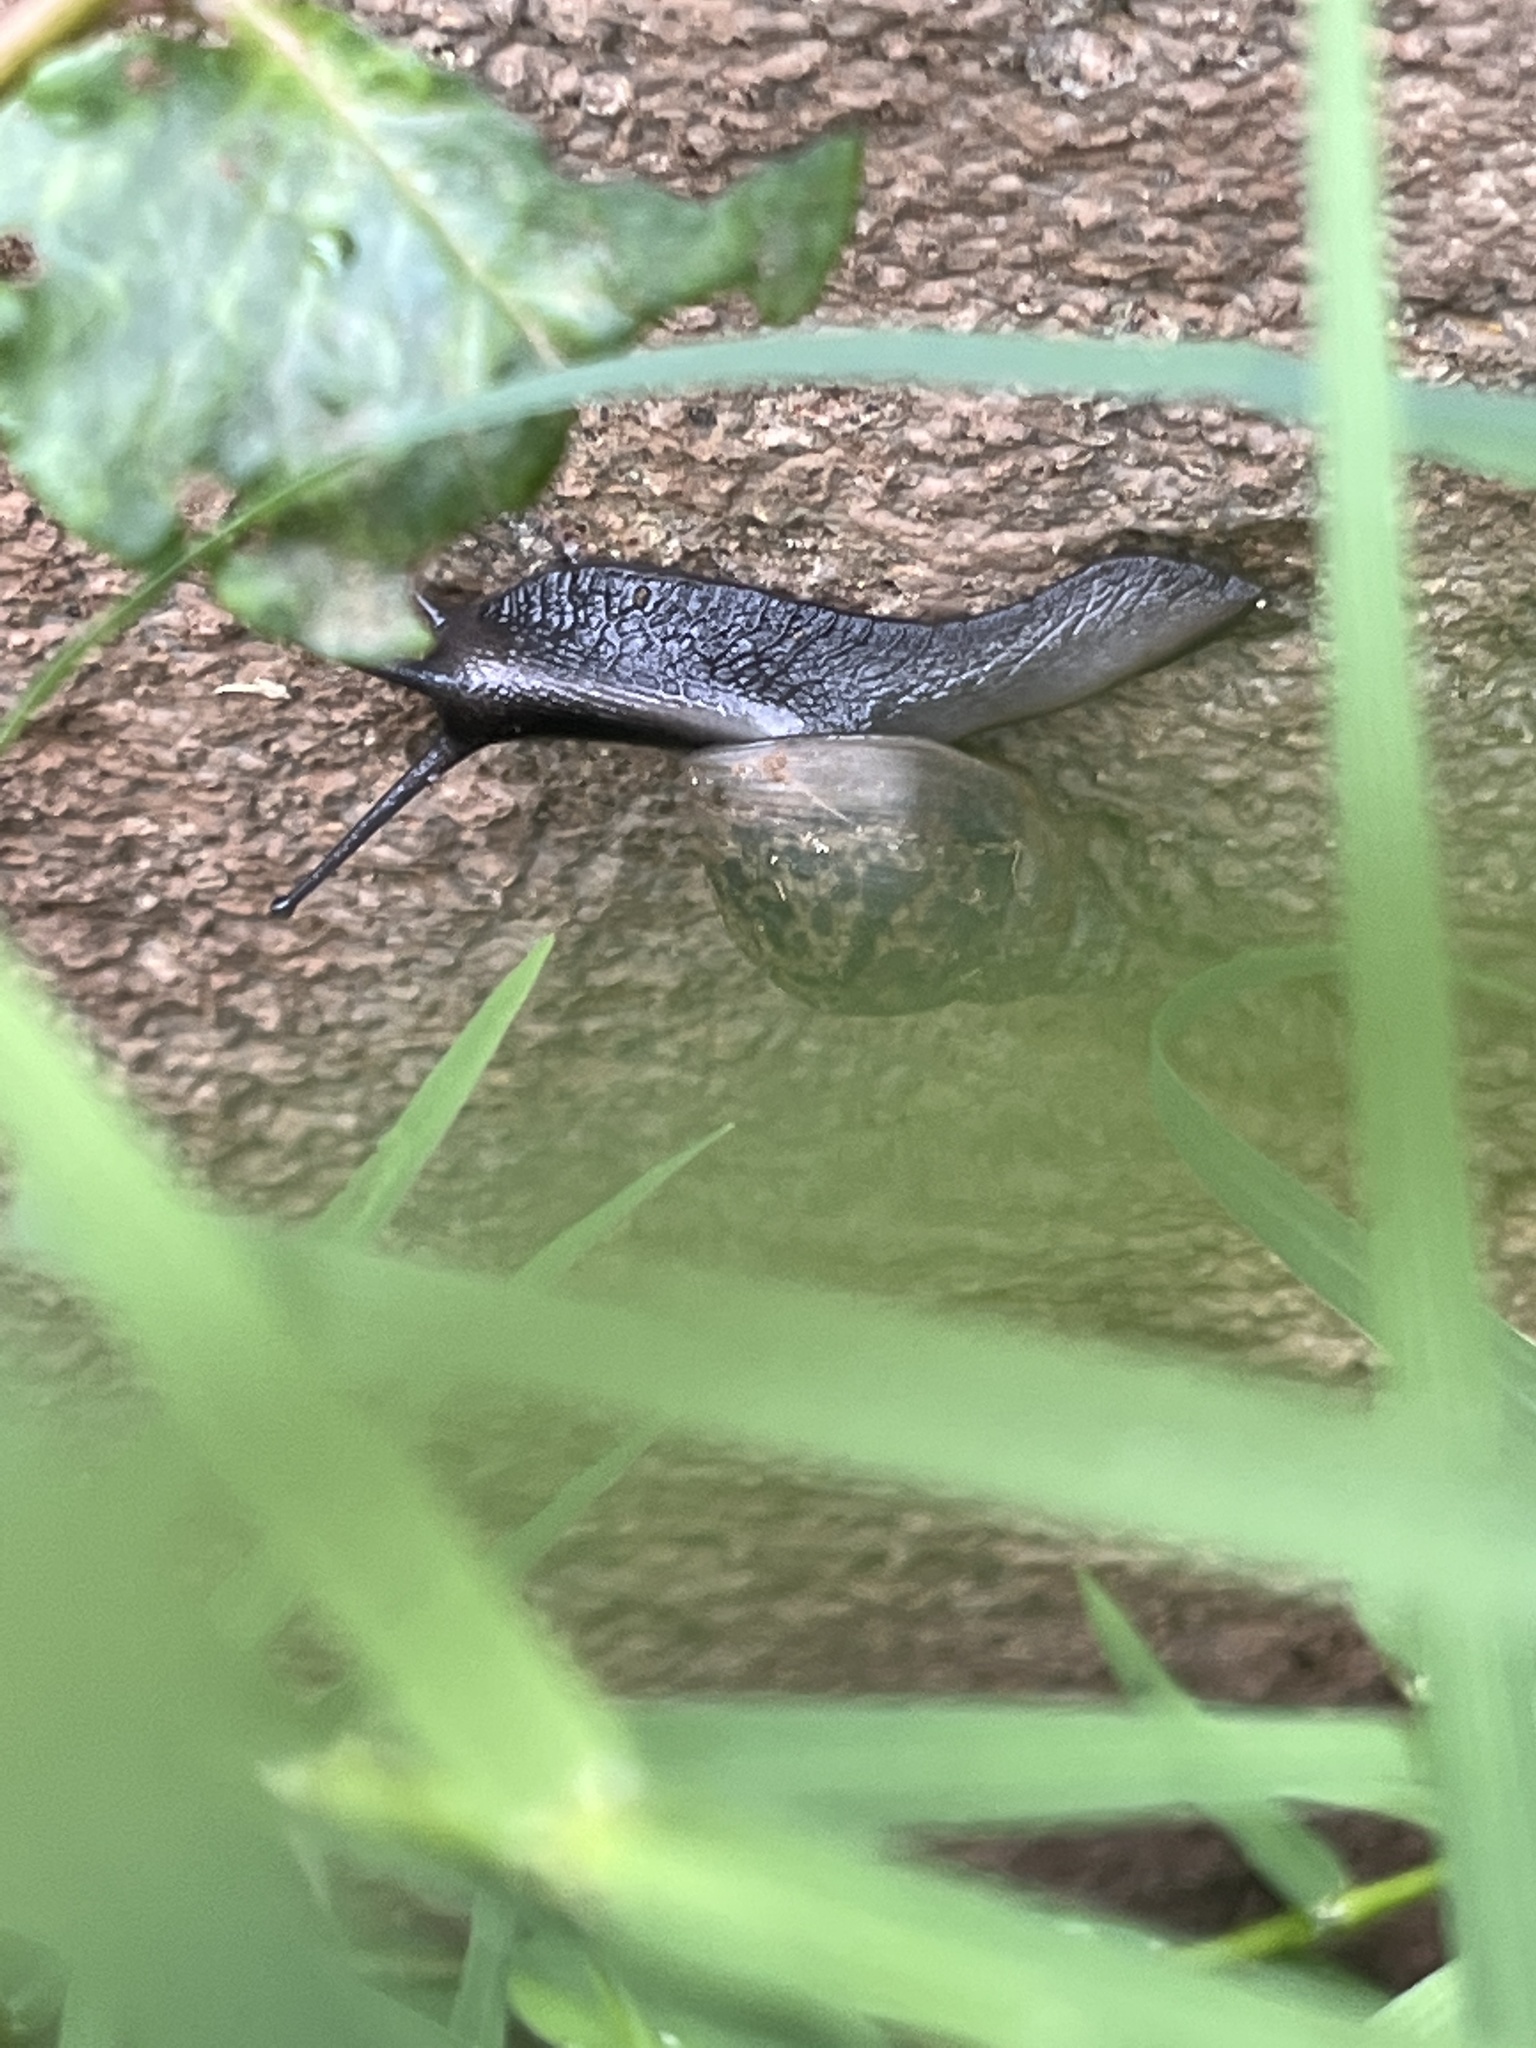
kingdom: Animalia
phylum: Mollusca
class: Gastropoda
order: Stylommatophora
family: Achatinidae
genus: Lissachatina
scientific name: Lissachatina fulica
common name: Giant african snail
